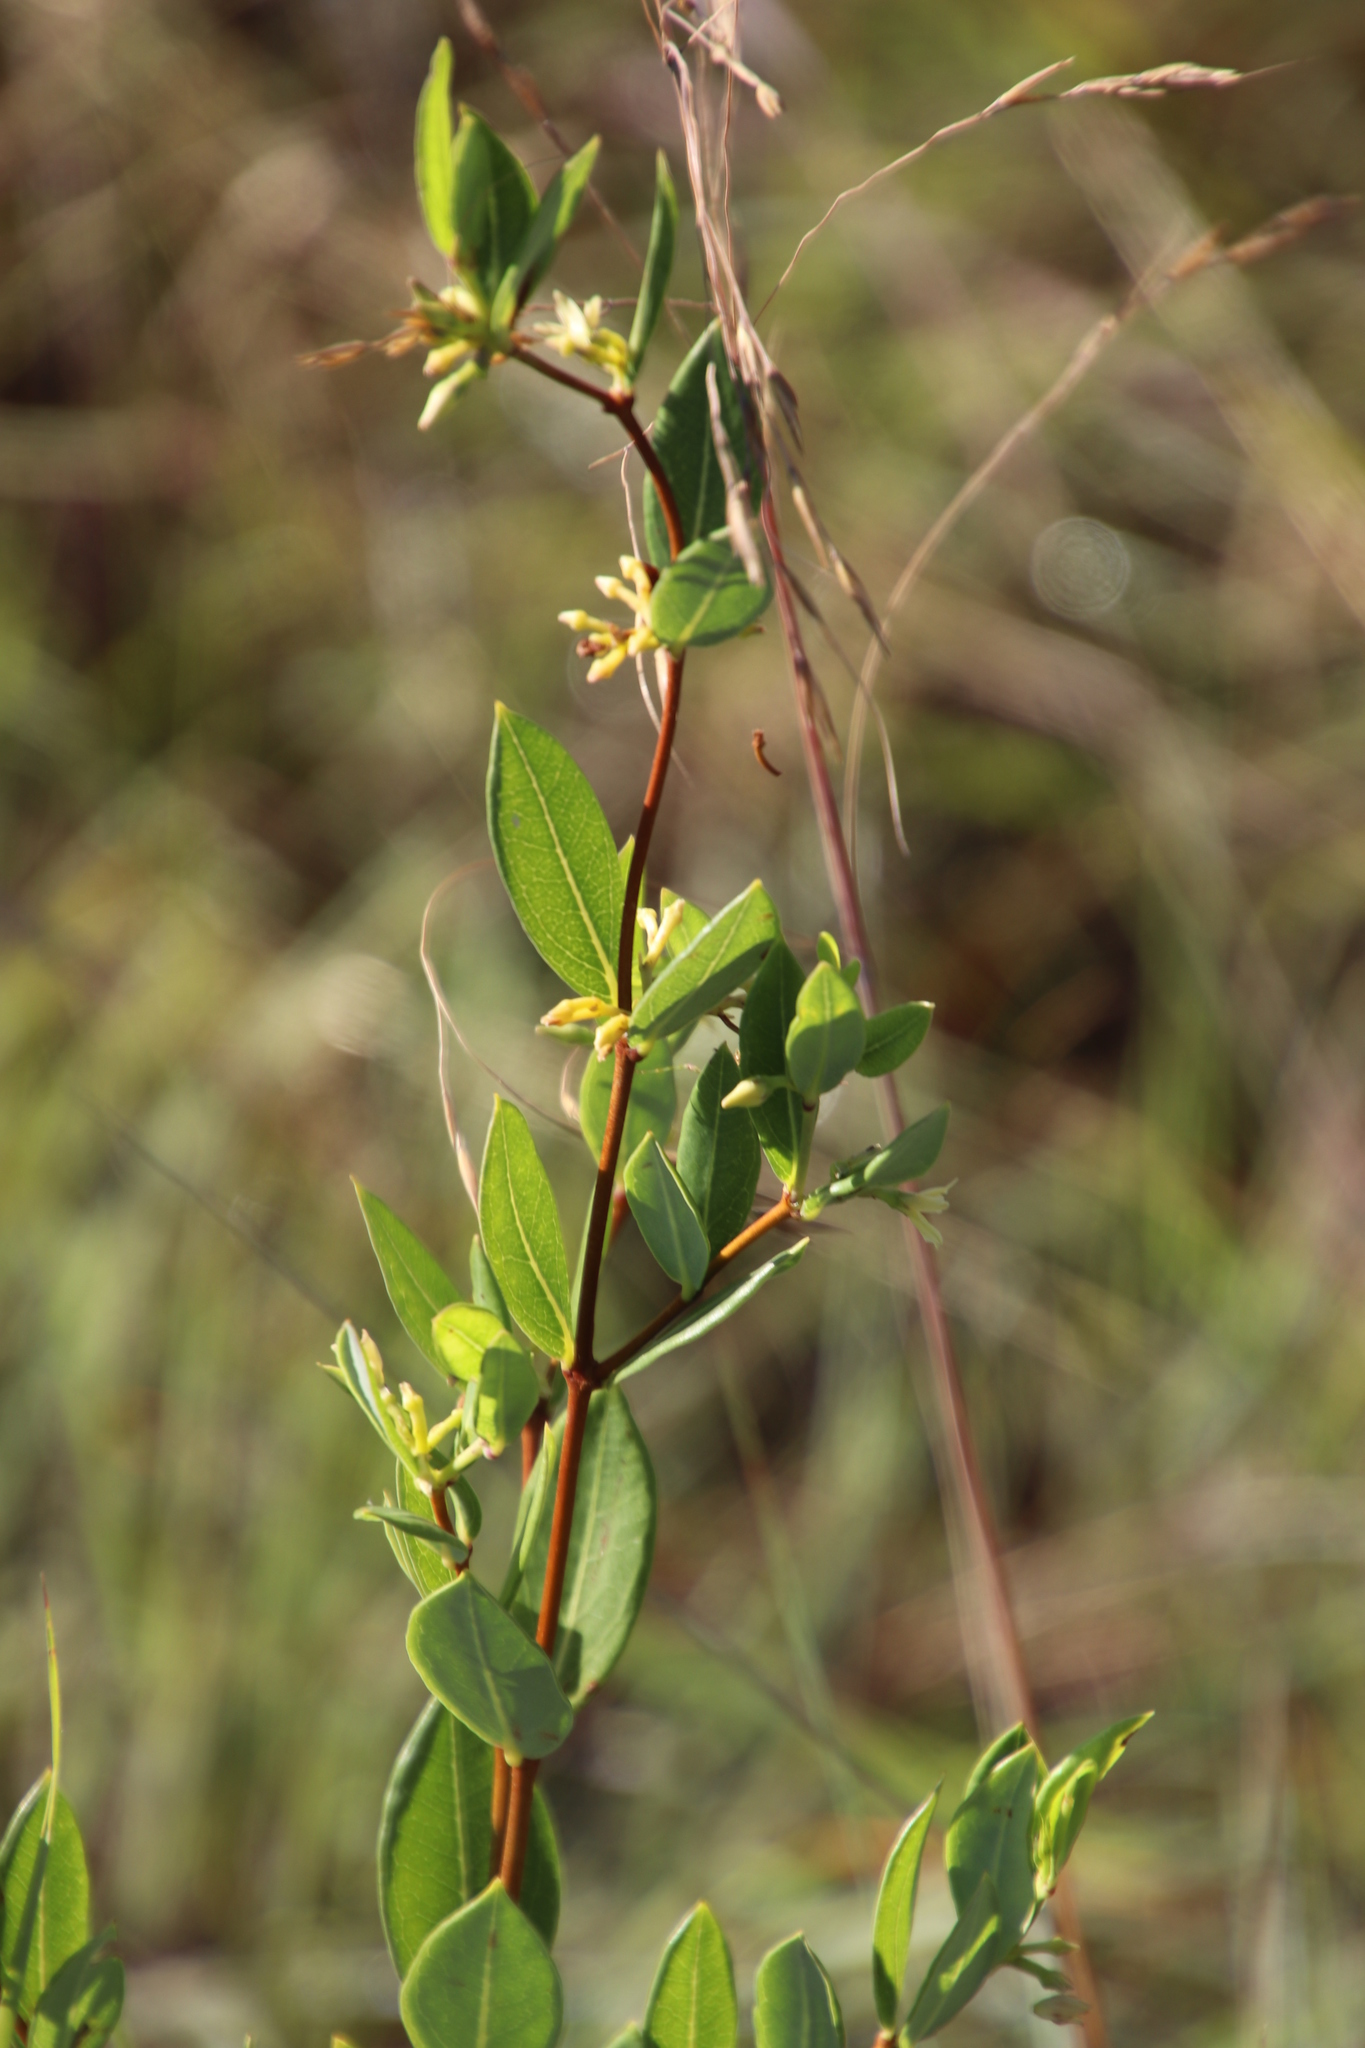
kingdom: Plantae
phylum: Tracheophyta
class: Magnoliopsida
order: Gentianales
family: Apocynaceae
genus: Cryptolepis
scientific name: Cryptolepis oblongifolia
